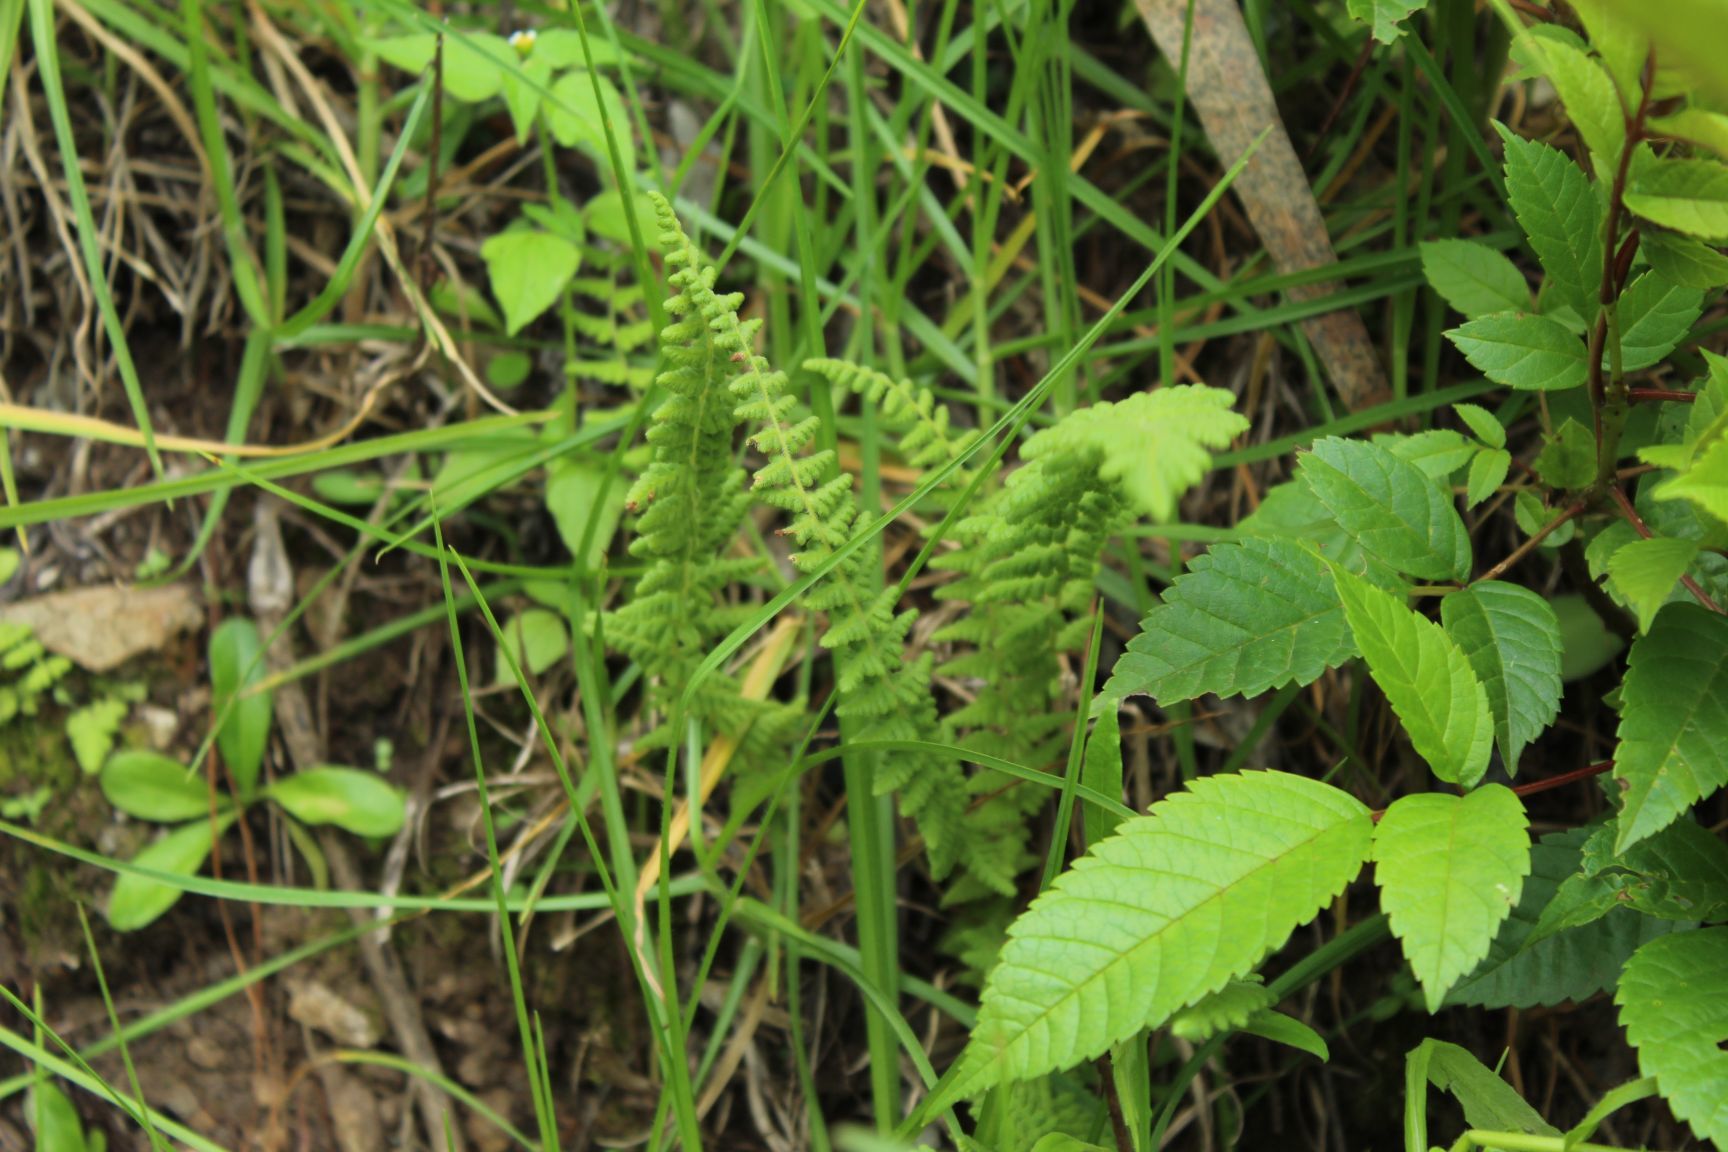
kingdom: Plantae
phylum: Tracheophyta
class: Polypodiopsida
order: Polypodiales
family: Woodsiaceae
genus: Physematium
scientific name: Physematium montevidense
